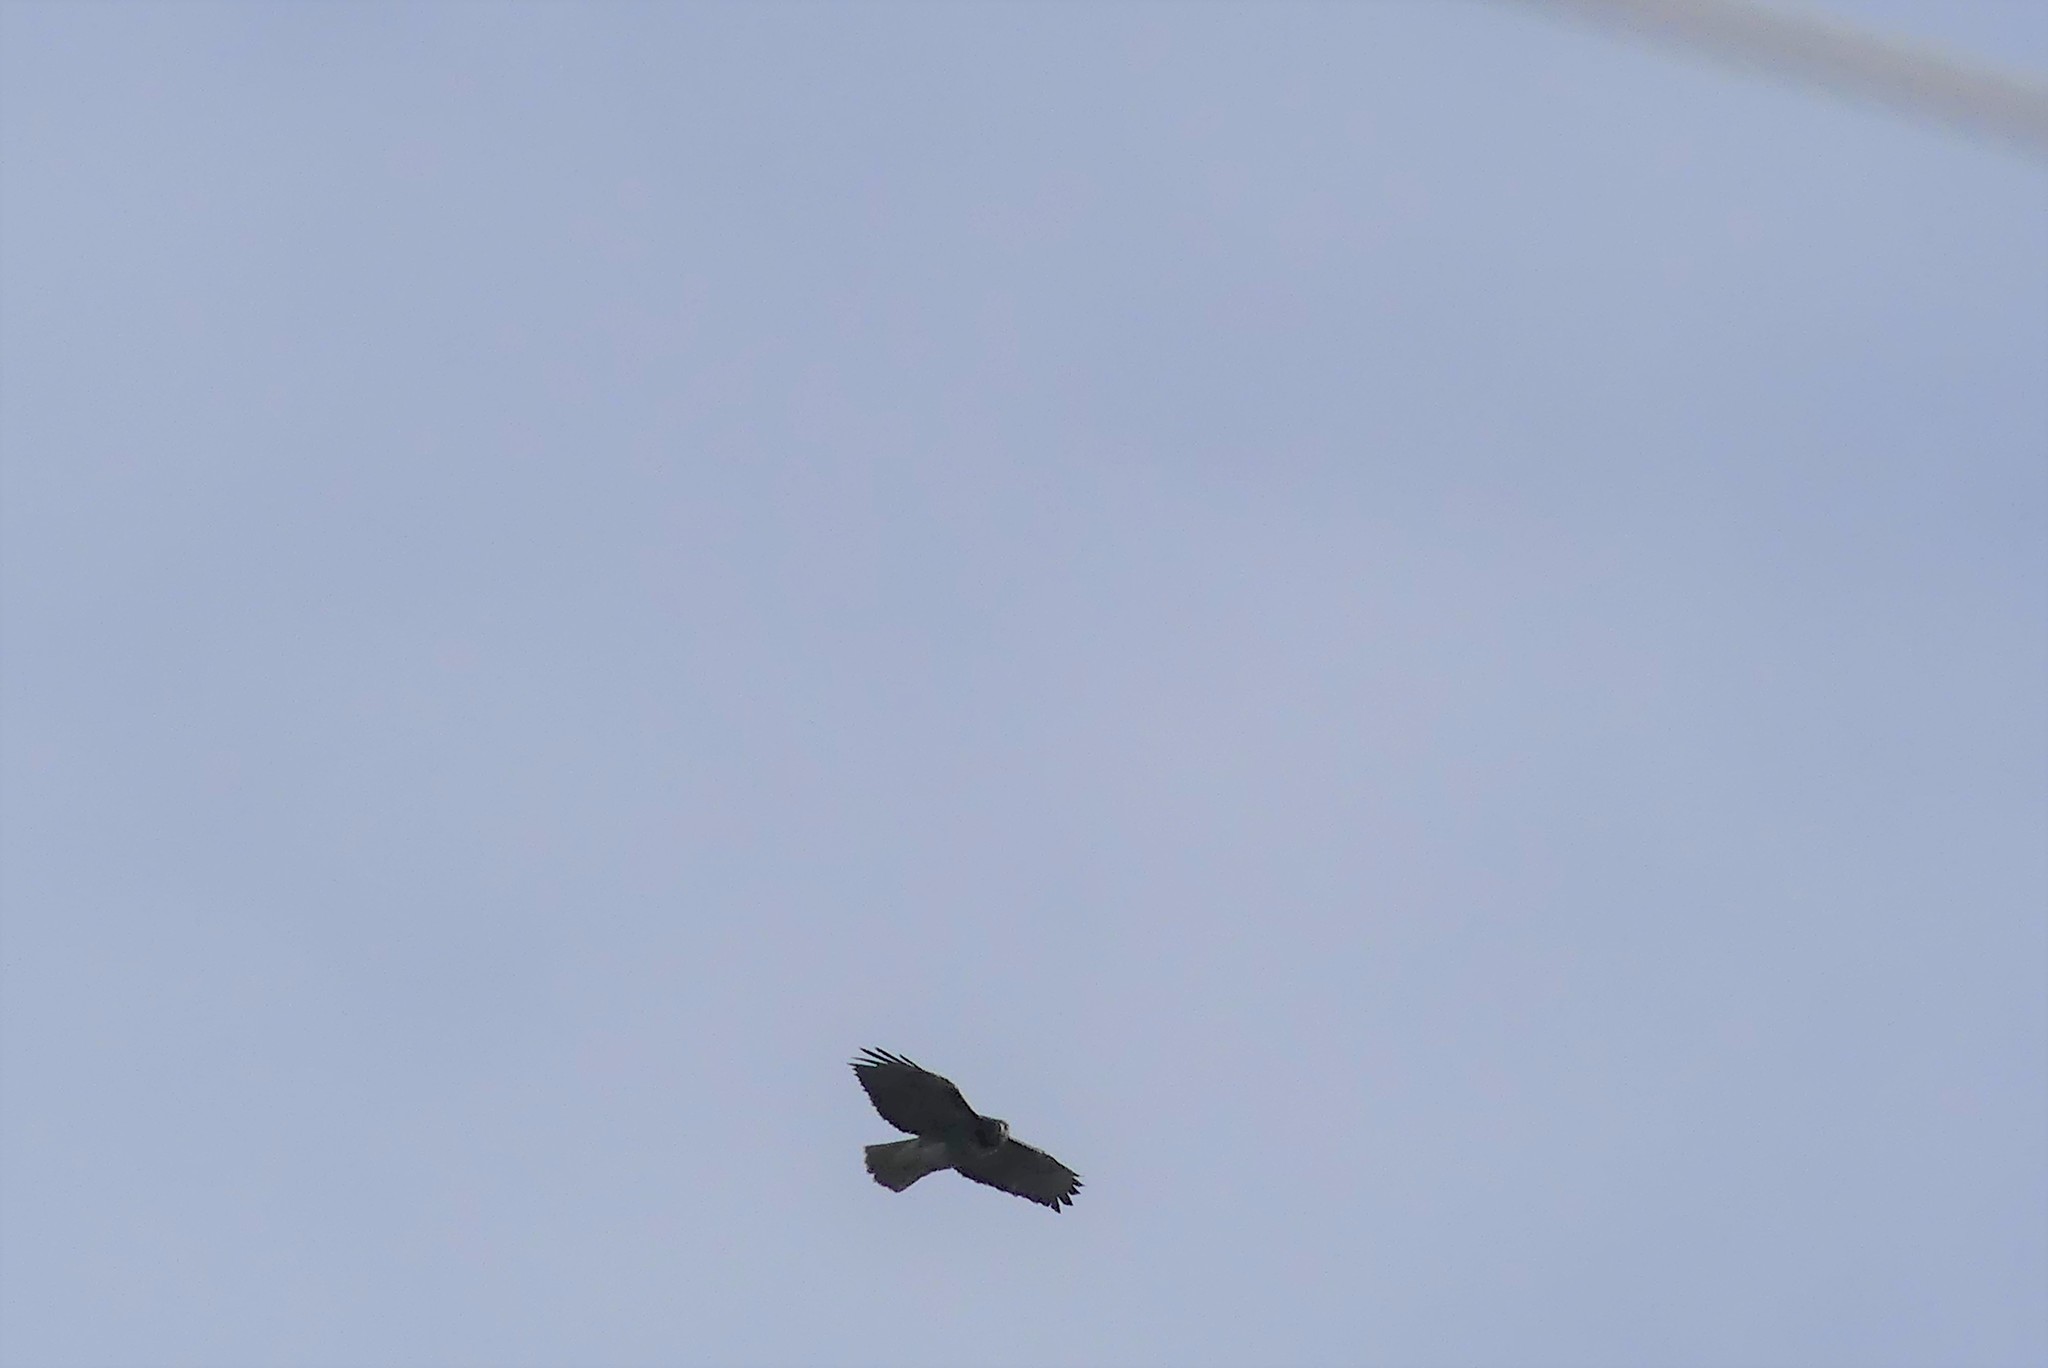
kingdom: Animalia
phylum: Chordata
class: Aves
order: Accipitriformes
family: Accipitridae
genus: Buteo
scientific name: Buteo jamaicensis
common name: Red-tailed hawk
